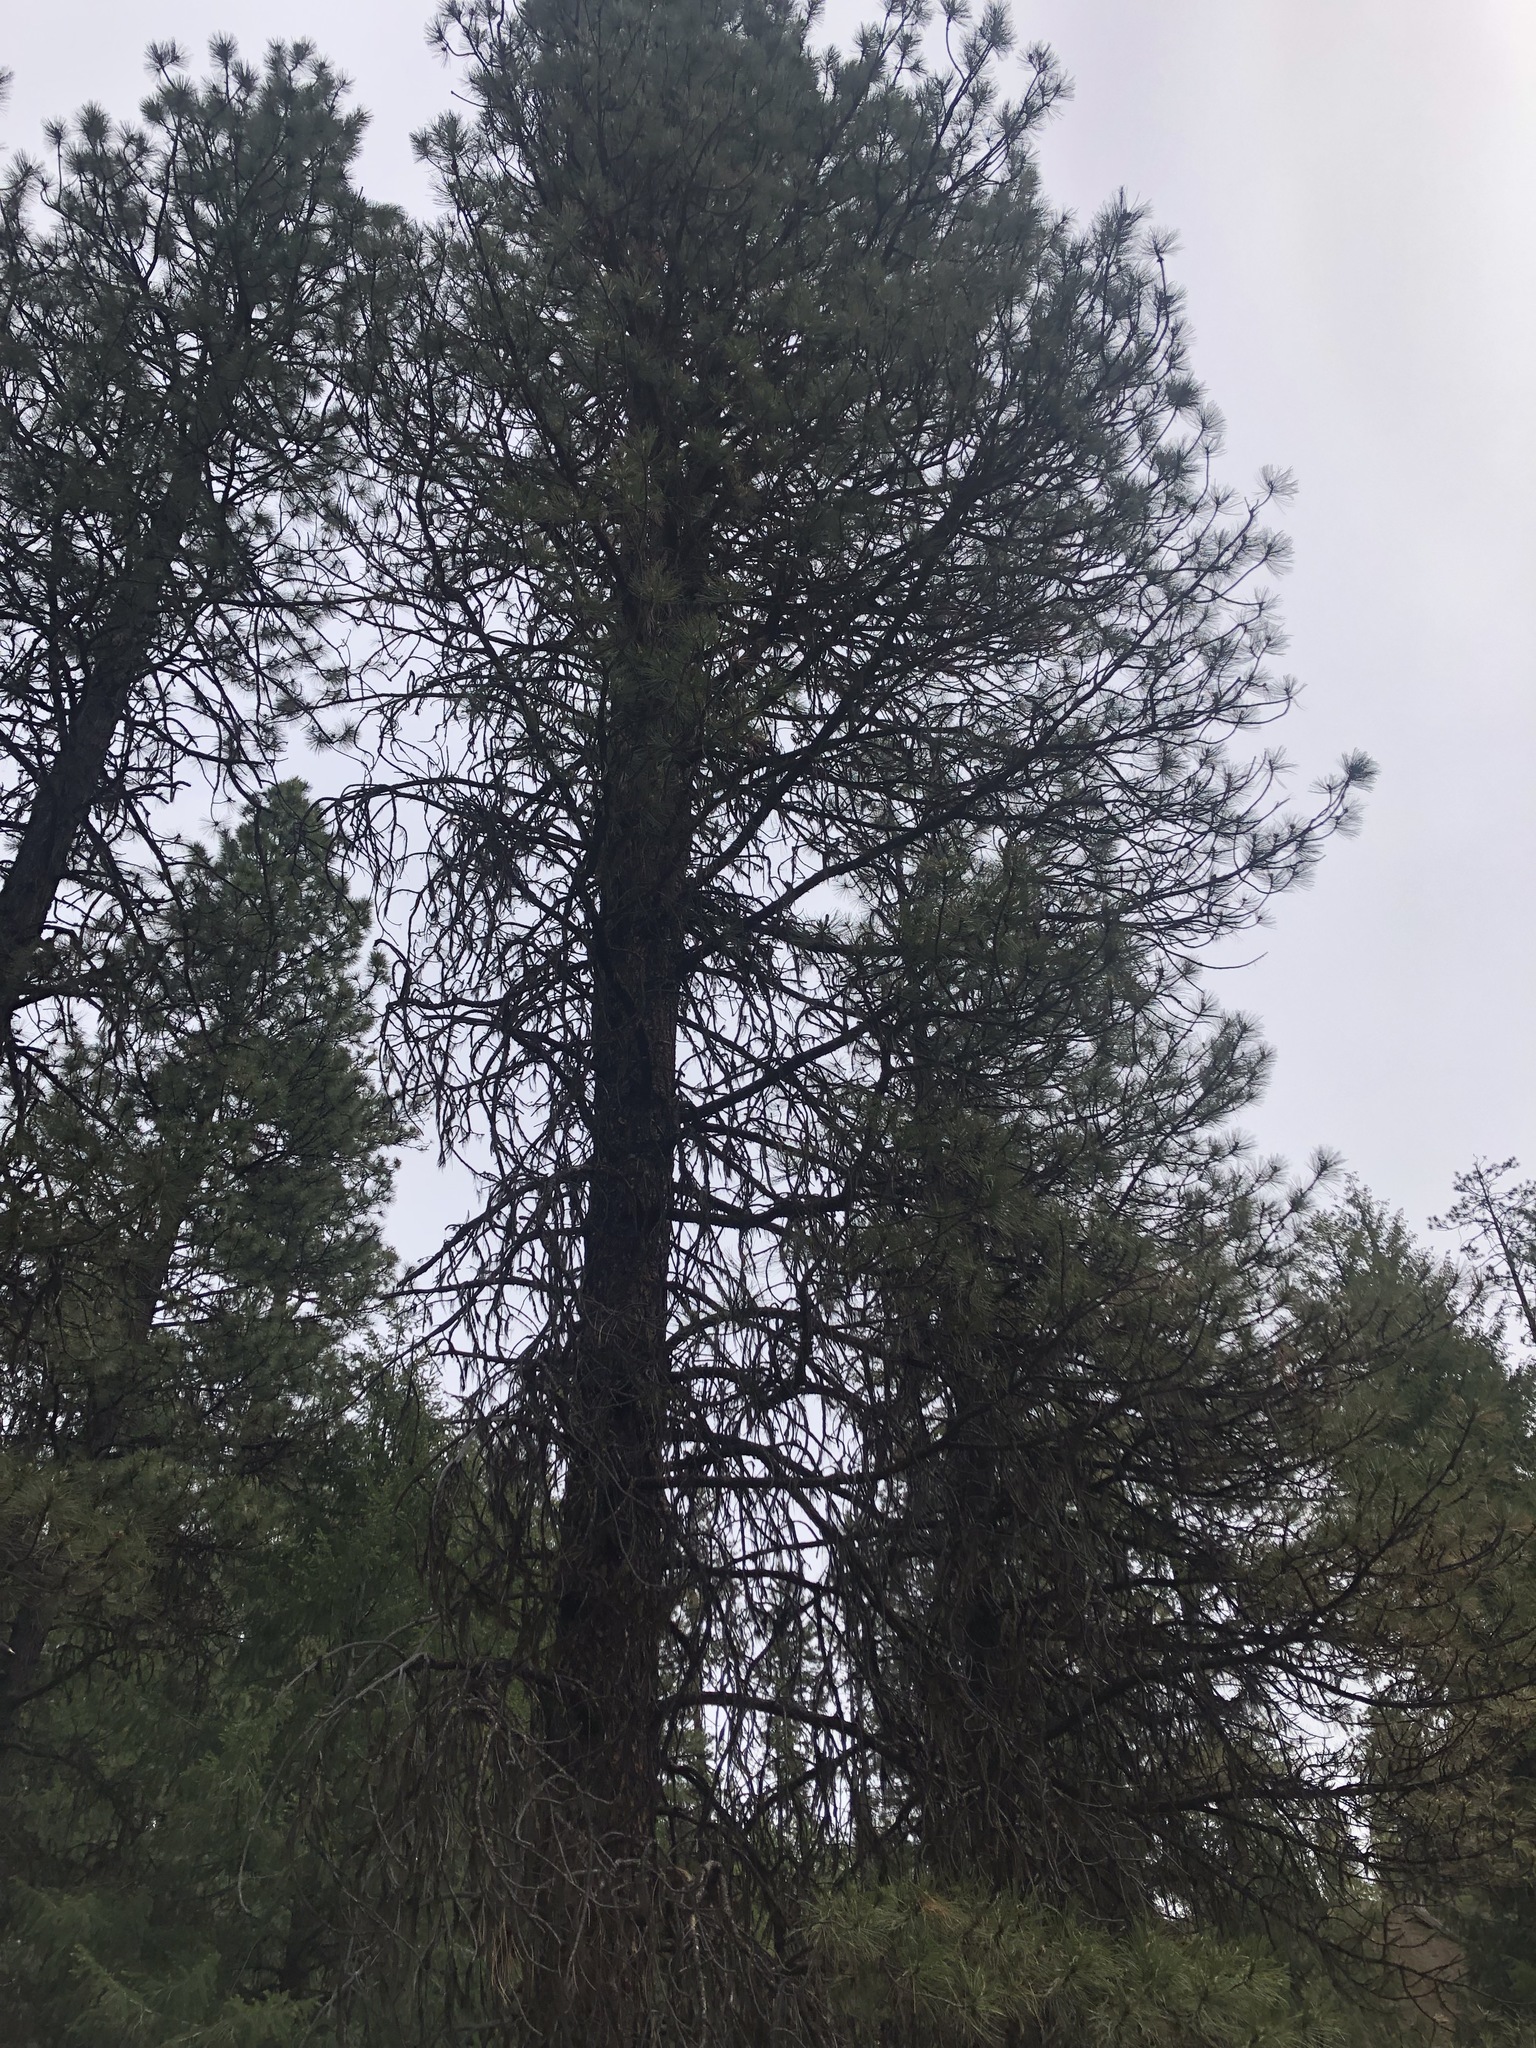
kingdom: Plantae
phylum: Tracheophyta
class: Pinopsida
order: Pinales
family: Pinaceae
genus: Pinus
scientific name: Pinus ponderosa
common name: Western yellow-pine
